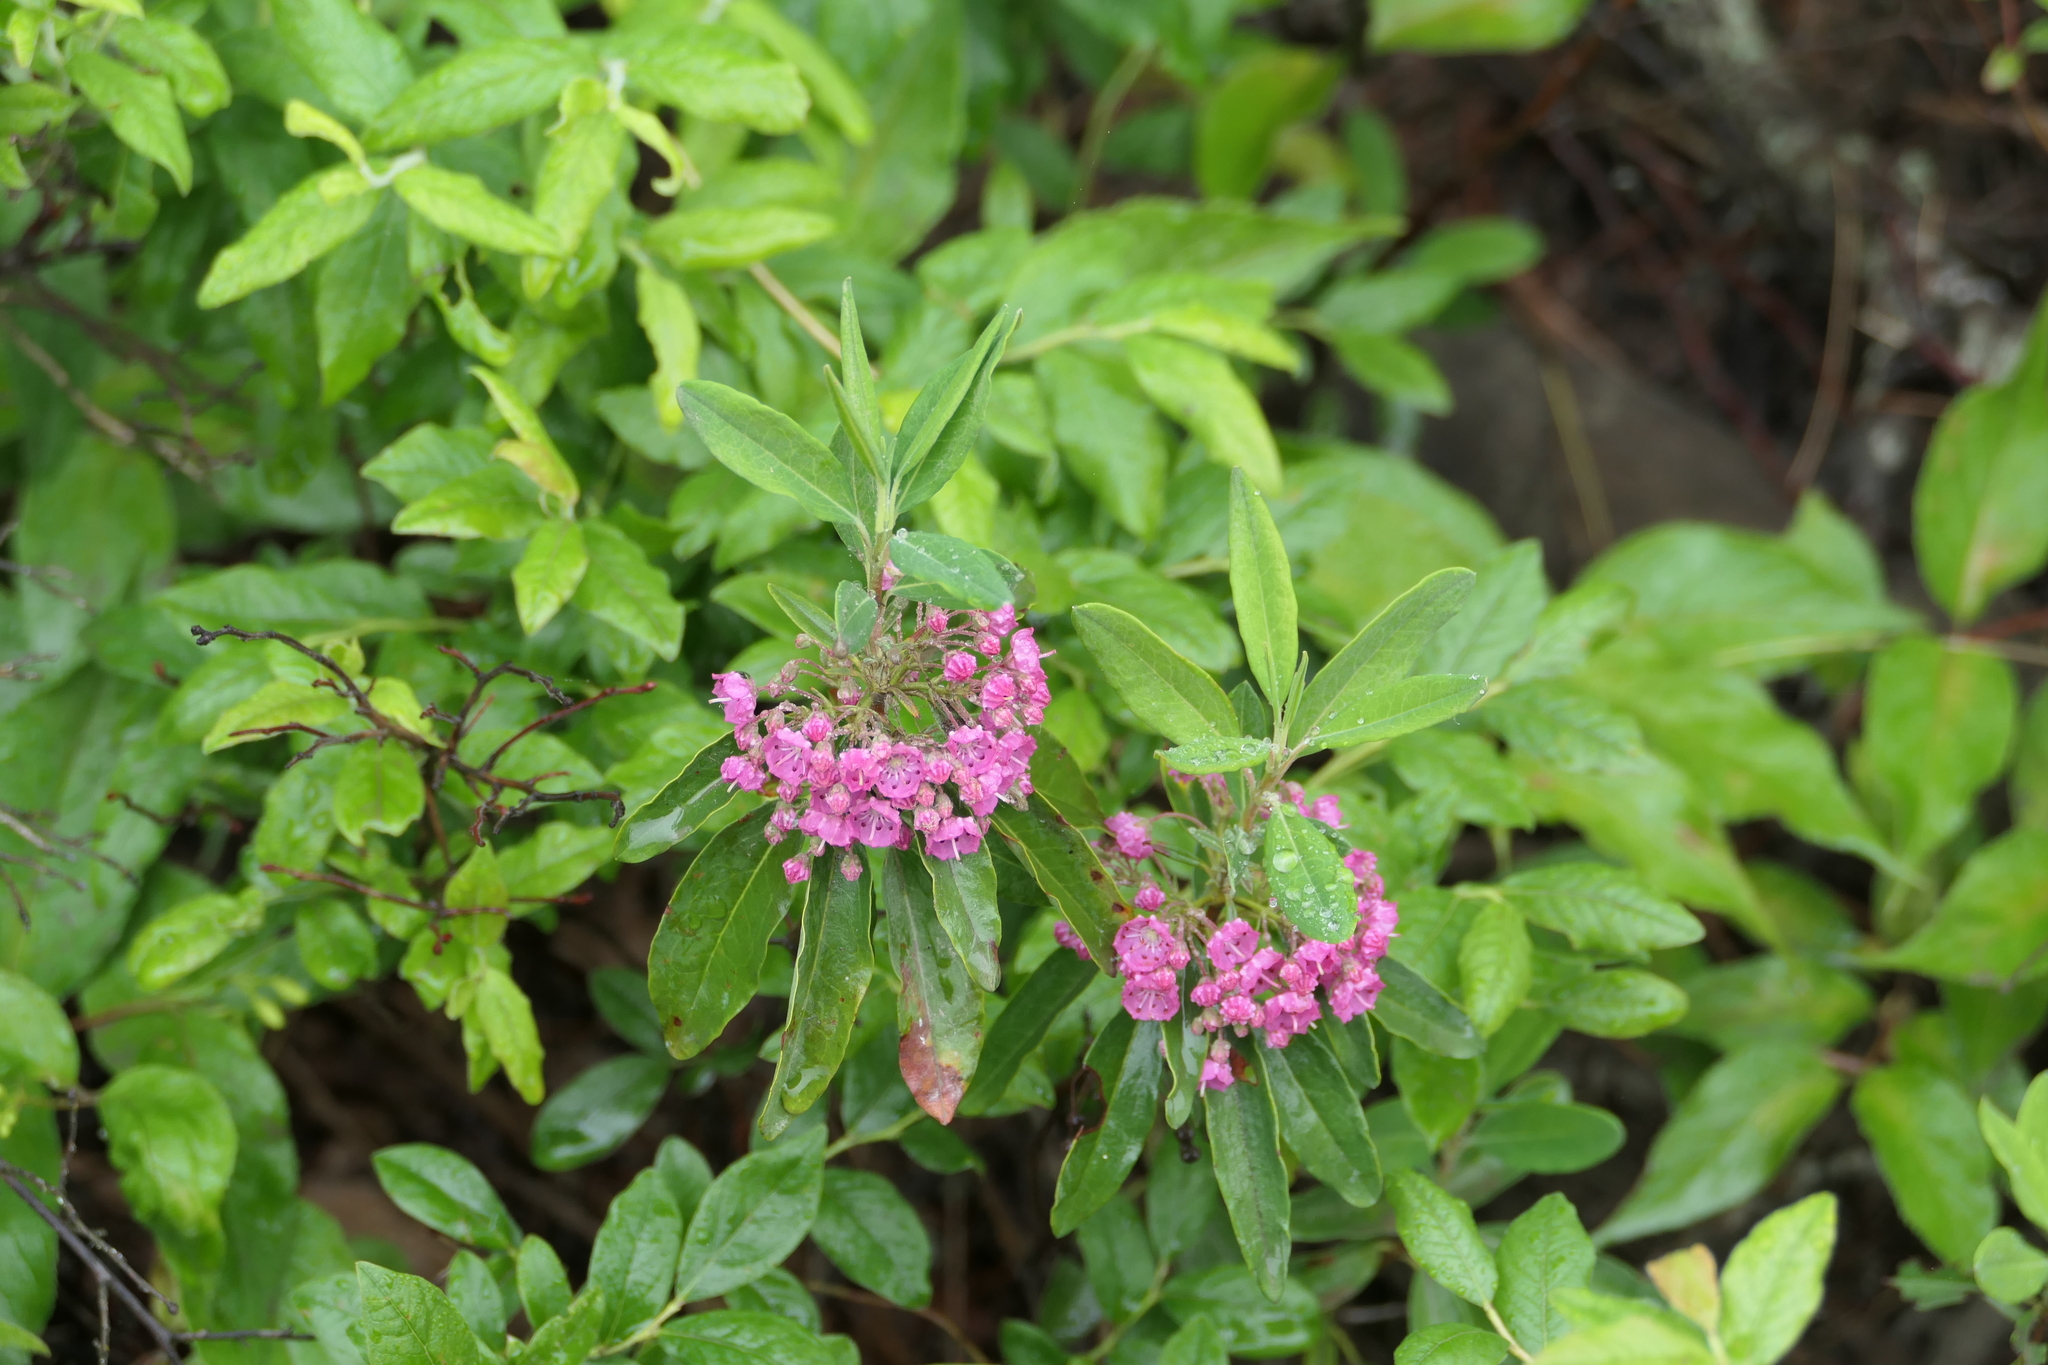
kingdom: Plantae
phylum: Tracheophyta
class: Magnoliopsida
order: Ericales
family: Ericaceae
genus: Kalmia
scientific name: Kalmia angustifolia
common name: Sheep-laurel
